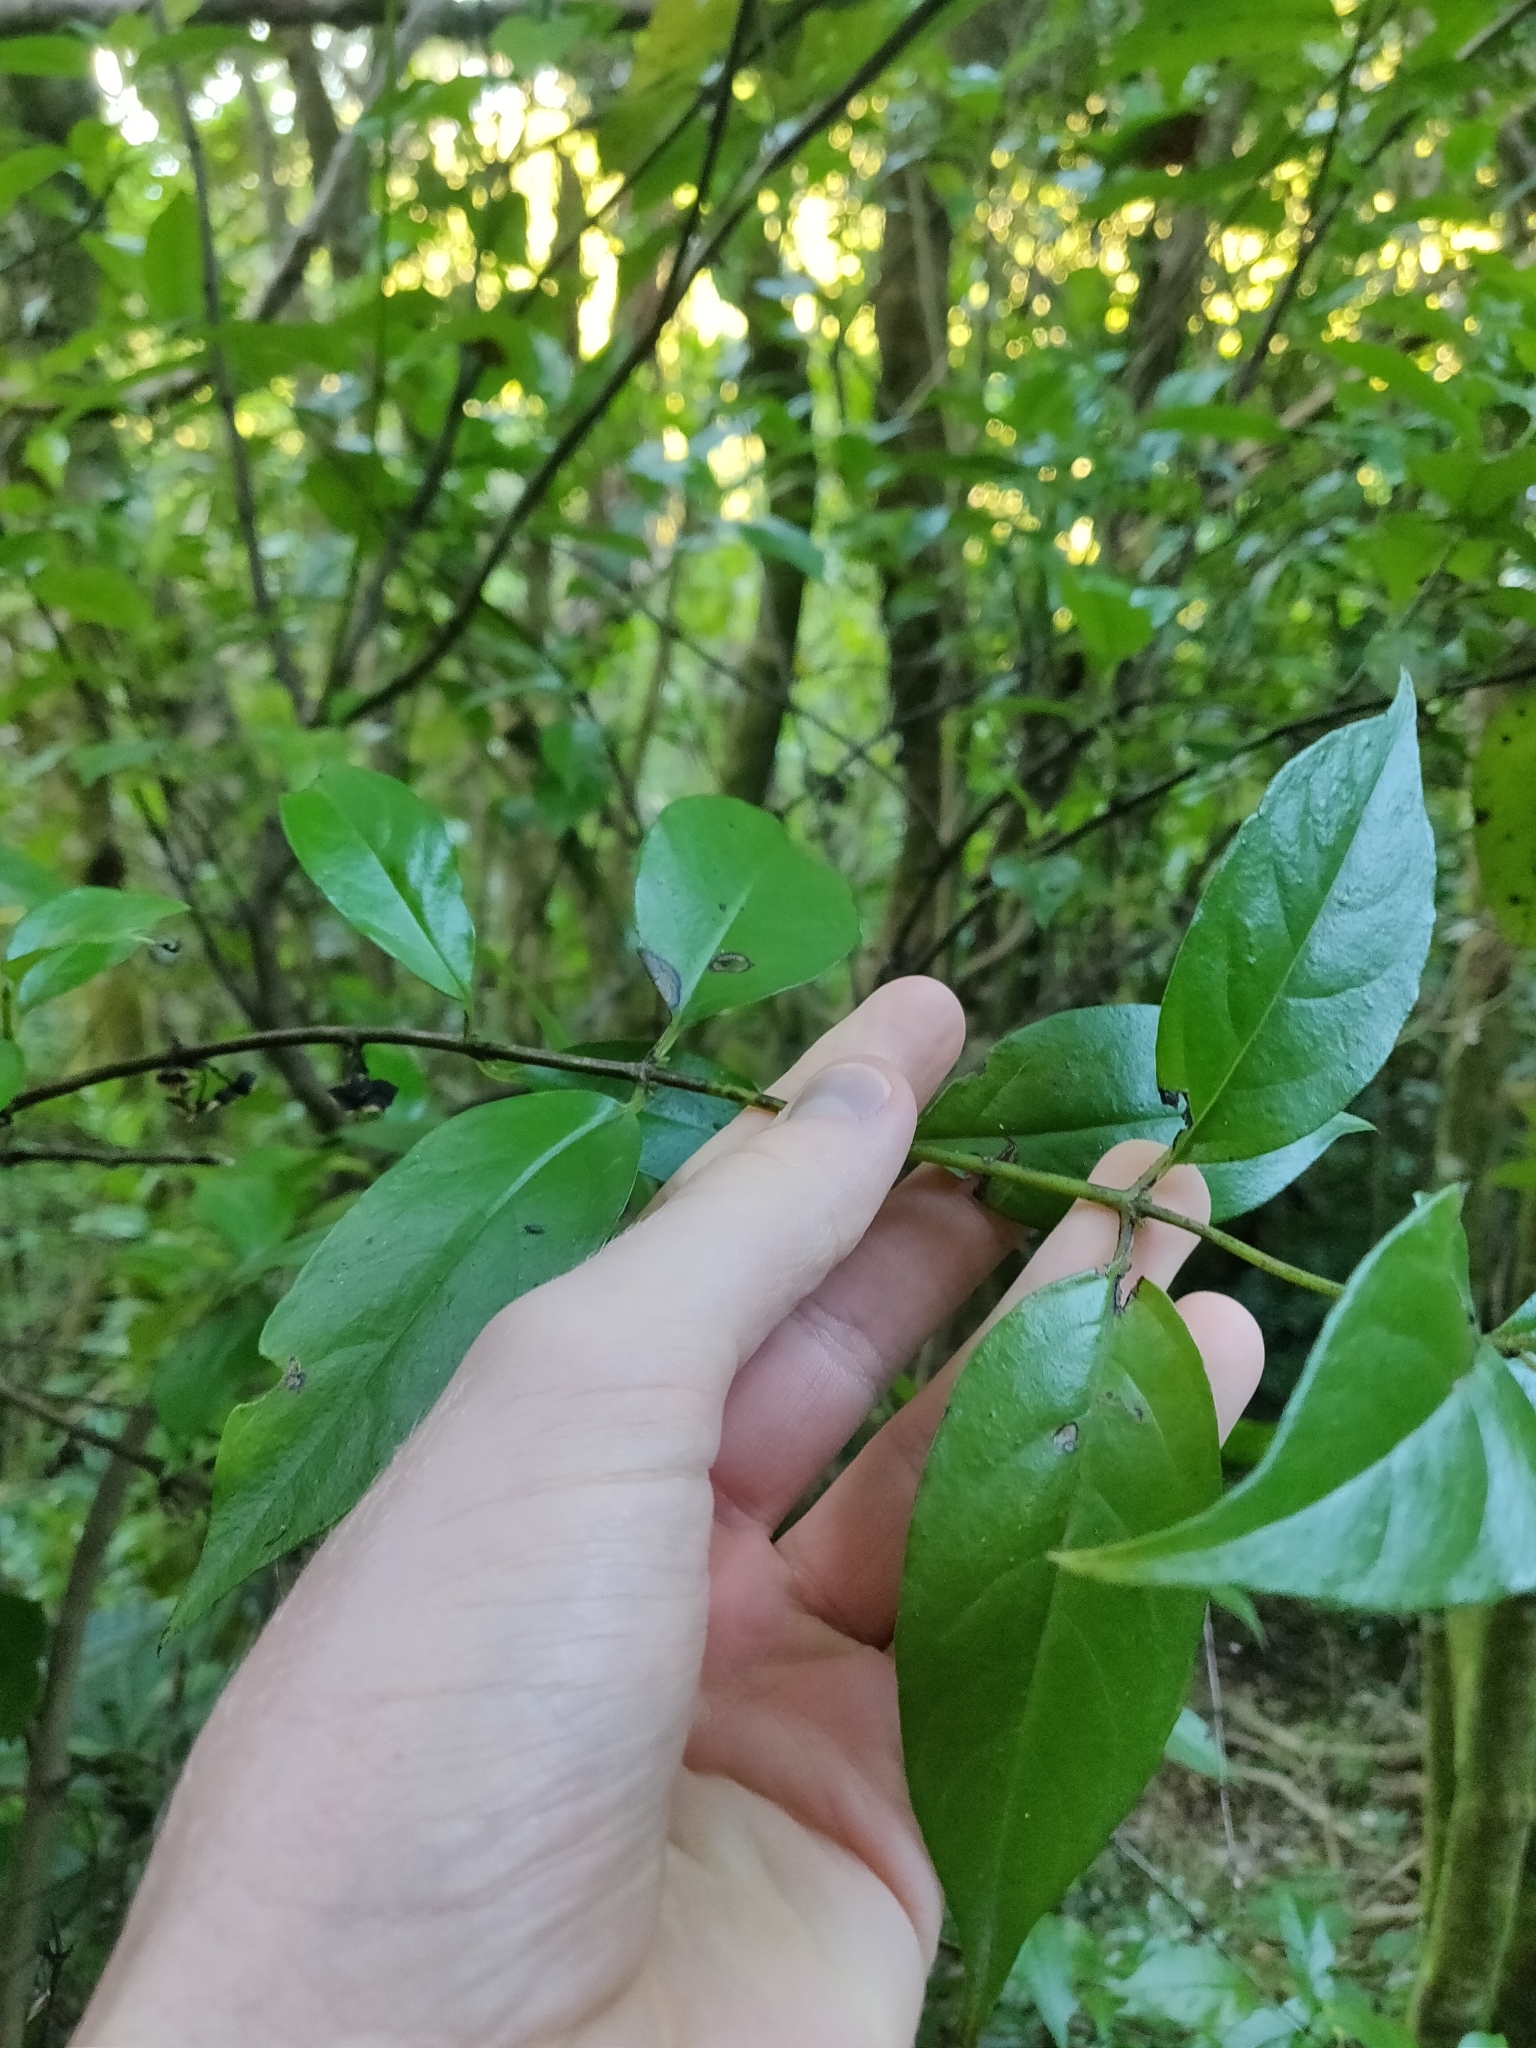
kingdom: Plantae
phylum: Tracheophyta
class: Magnoliopsida
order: Gentianales
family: Loganiaceae
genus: Geniostoma
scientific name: Geniostoma ligustrifolium
